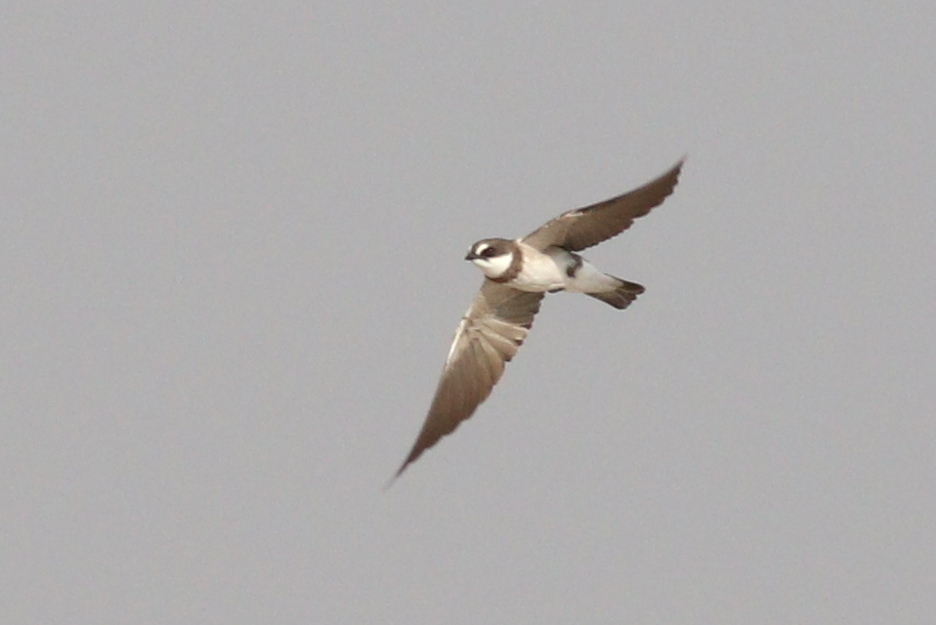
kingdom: Animalia
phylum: Chordata
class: Aves
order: Passeriformes
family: Hirundinidae
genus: Riparia
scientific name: Riparia cincta
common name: Banded martin
